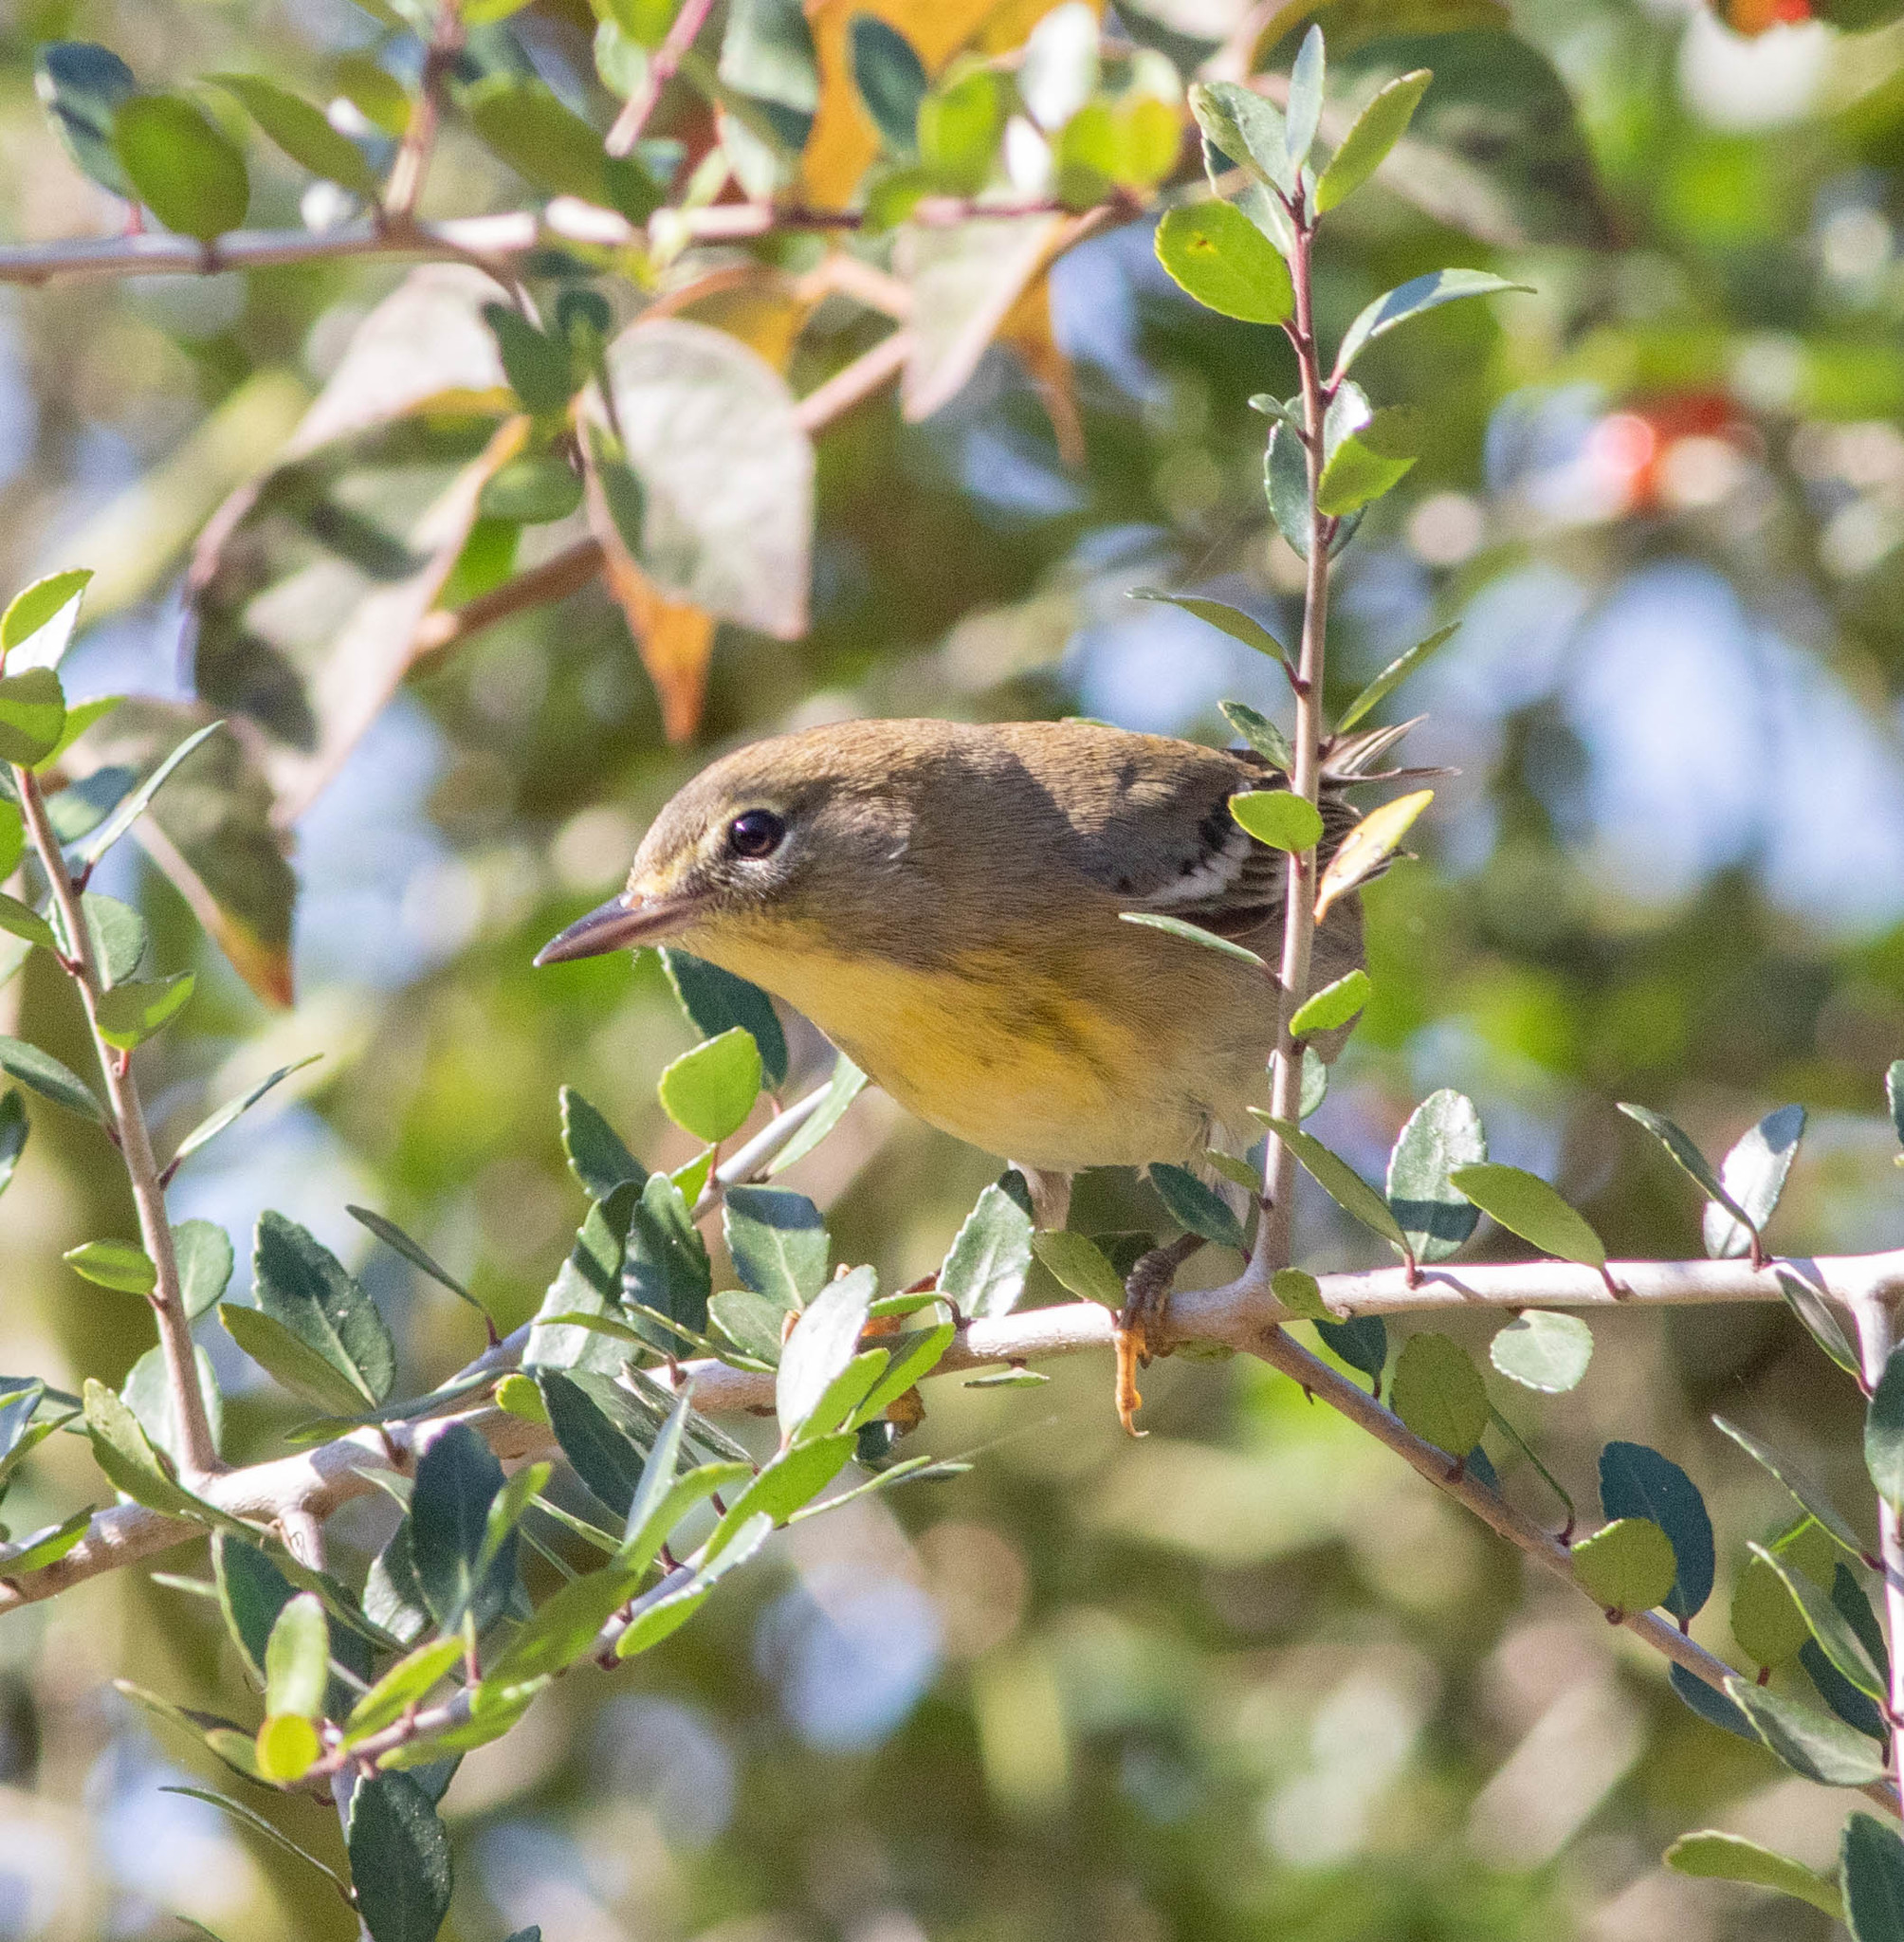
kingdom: Animalia
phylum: Chordata
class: Aves
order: Passeriformes
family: Parulidae
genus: Setophaga
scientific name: Setophaga pinus
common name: Pine warbler
